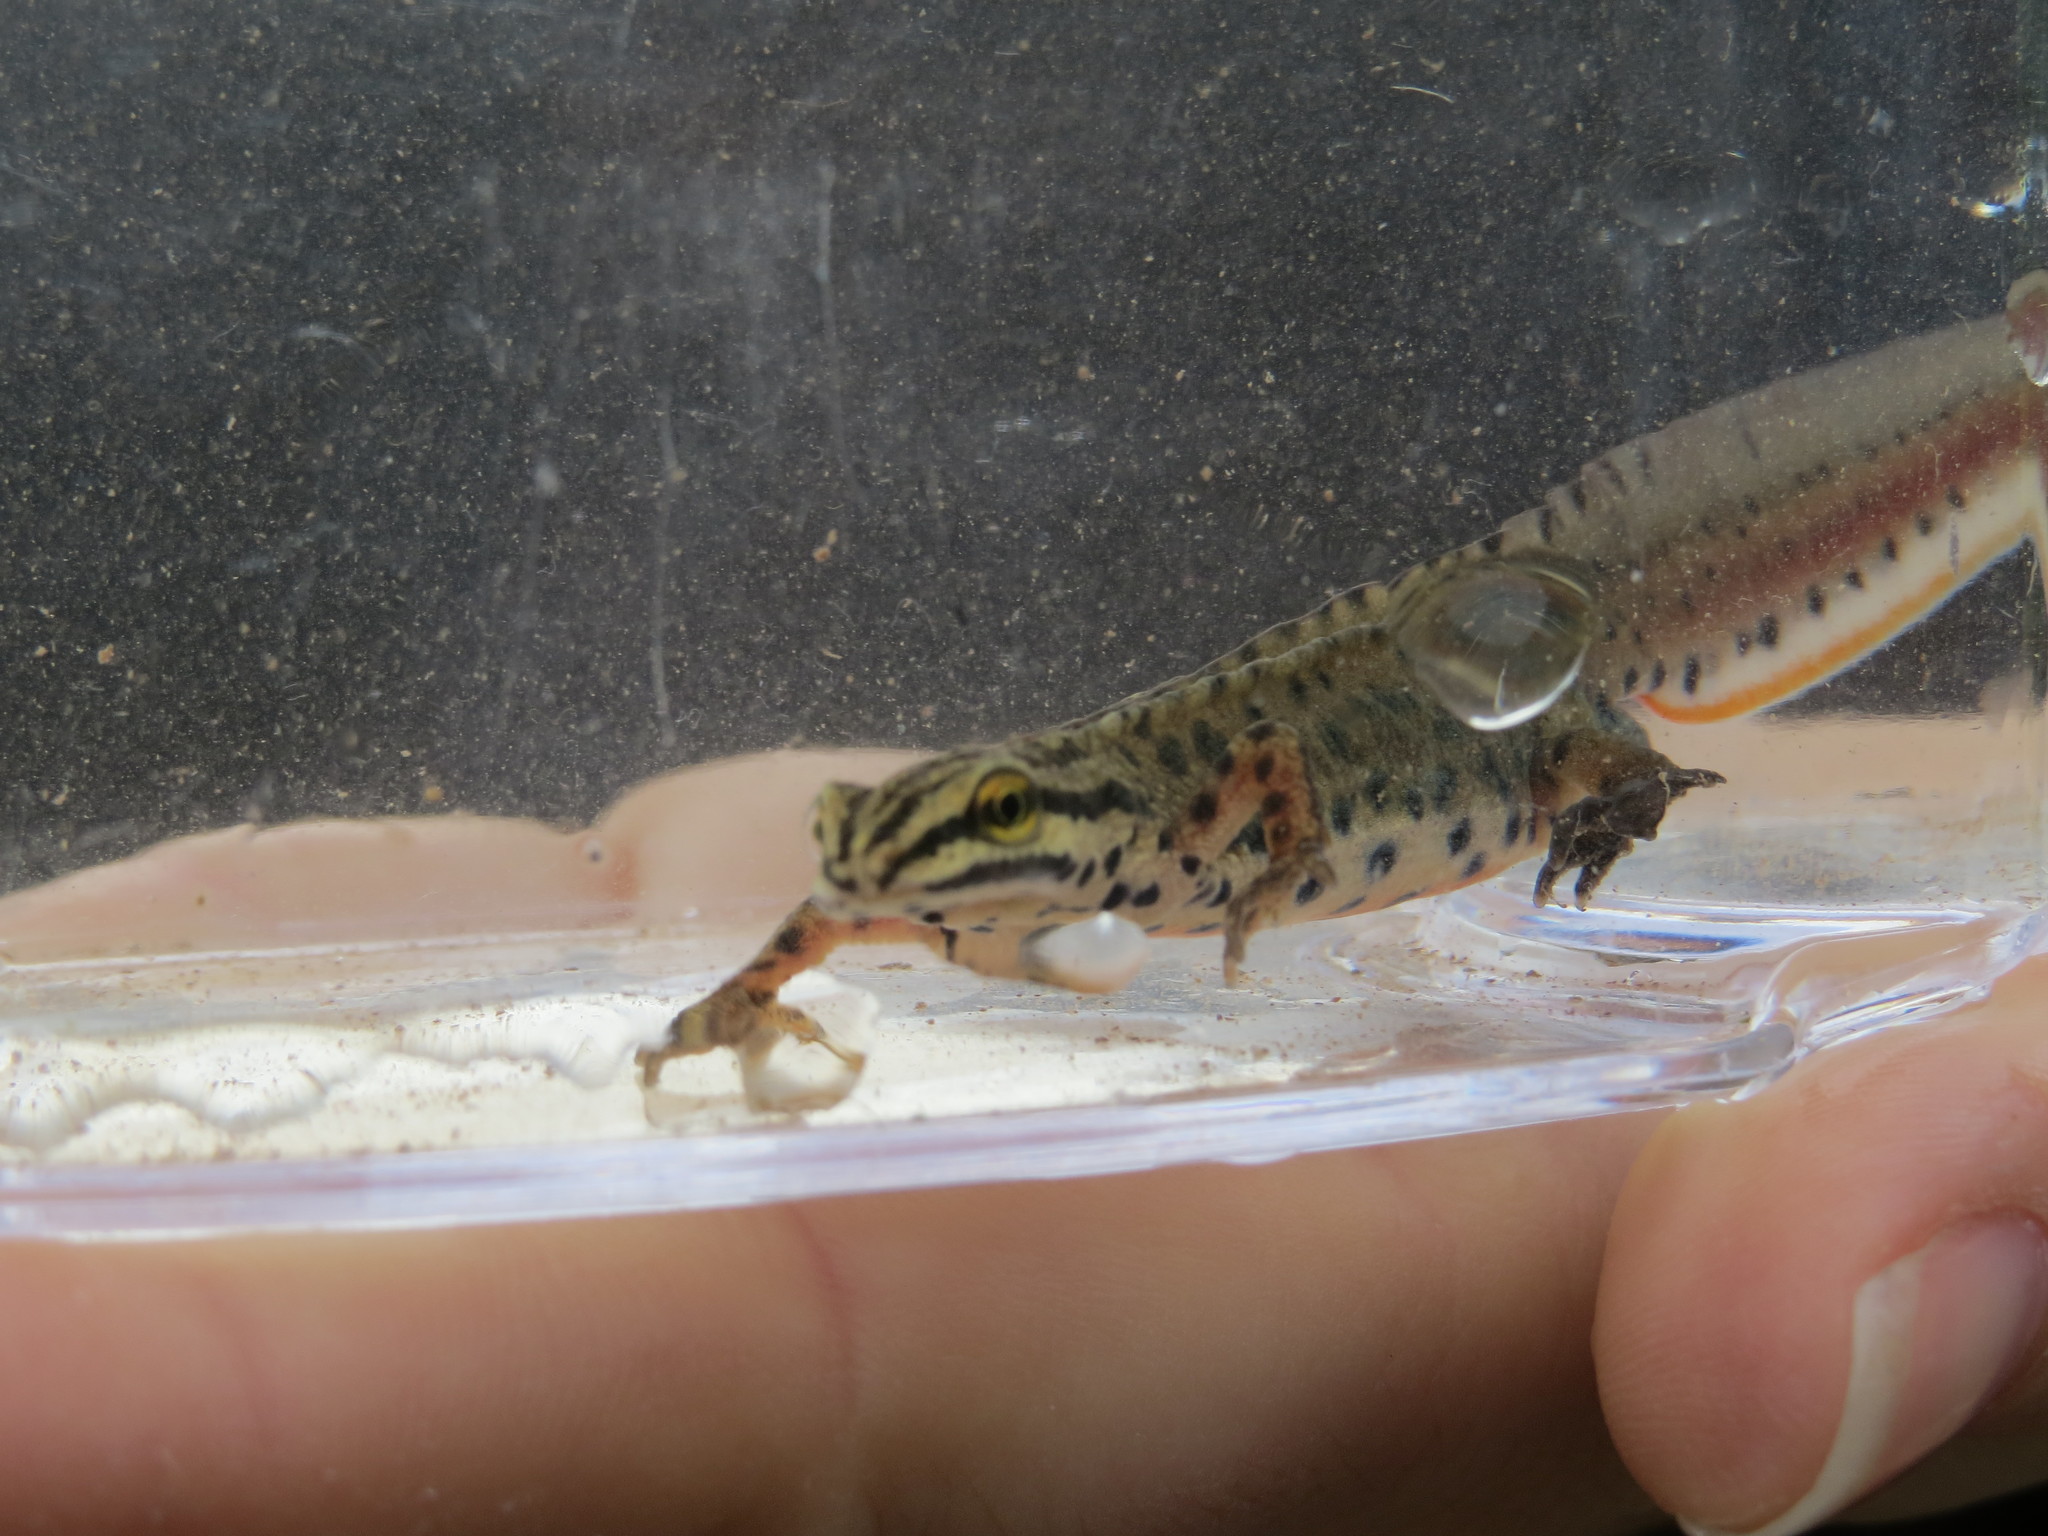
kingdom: Animalia
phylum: Chordata
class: Amphibia
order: Caudata
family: Salamandridae
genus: Lissotriton
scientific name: Lissotriton graecus
